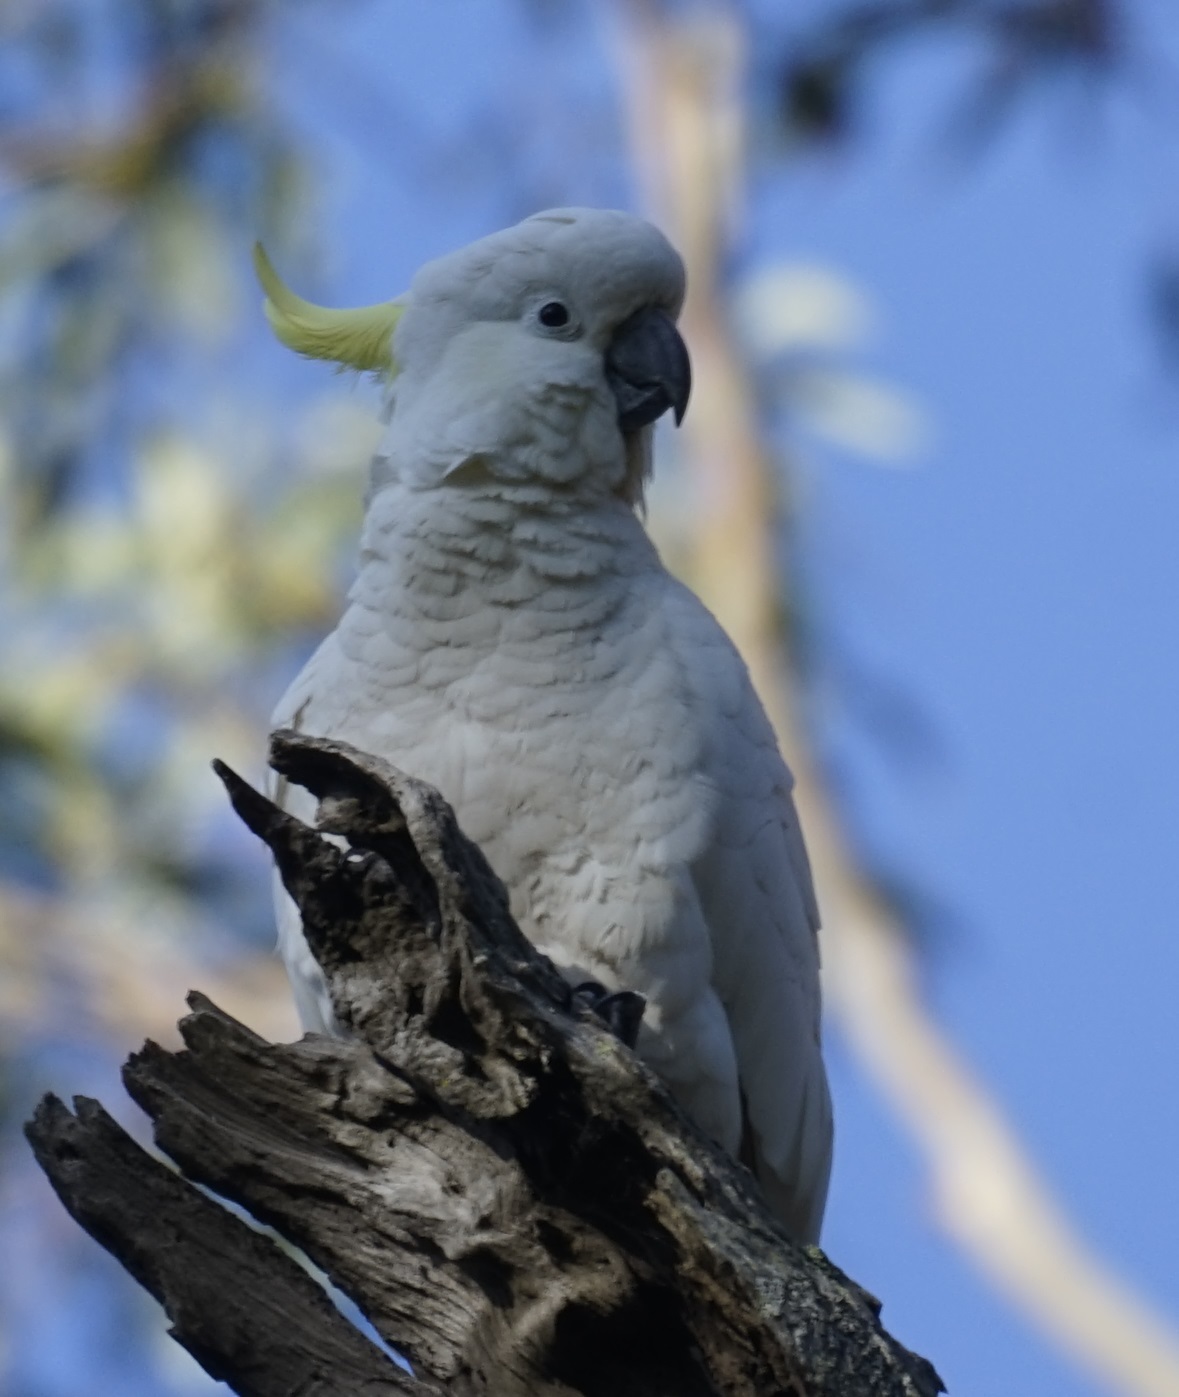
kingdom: Animalia
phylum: Chordata
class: Aves
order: Psittaciformes
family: Psittacidae
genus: Cacatua
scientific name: Cacatua galerita
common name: Sulphur-crested cockatoo
